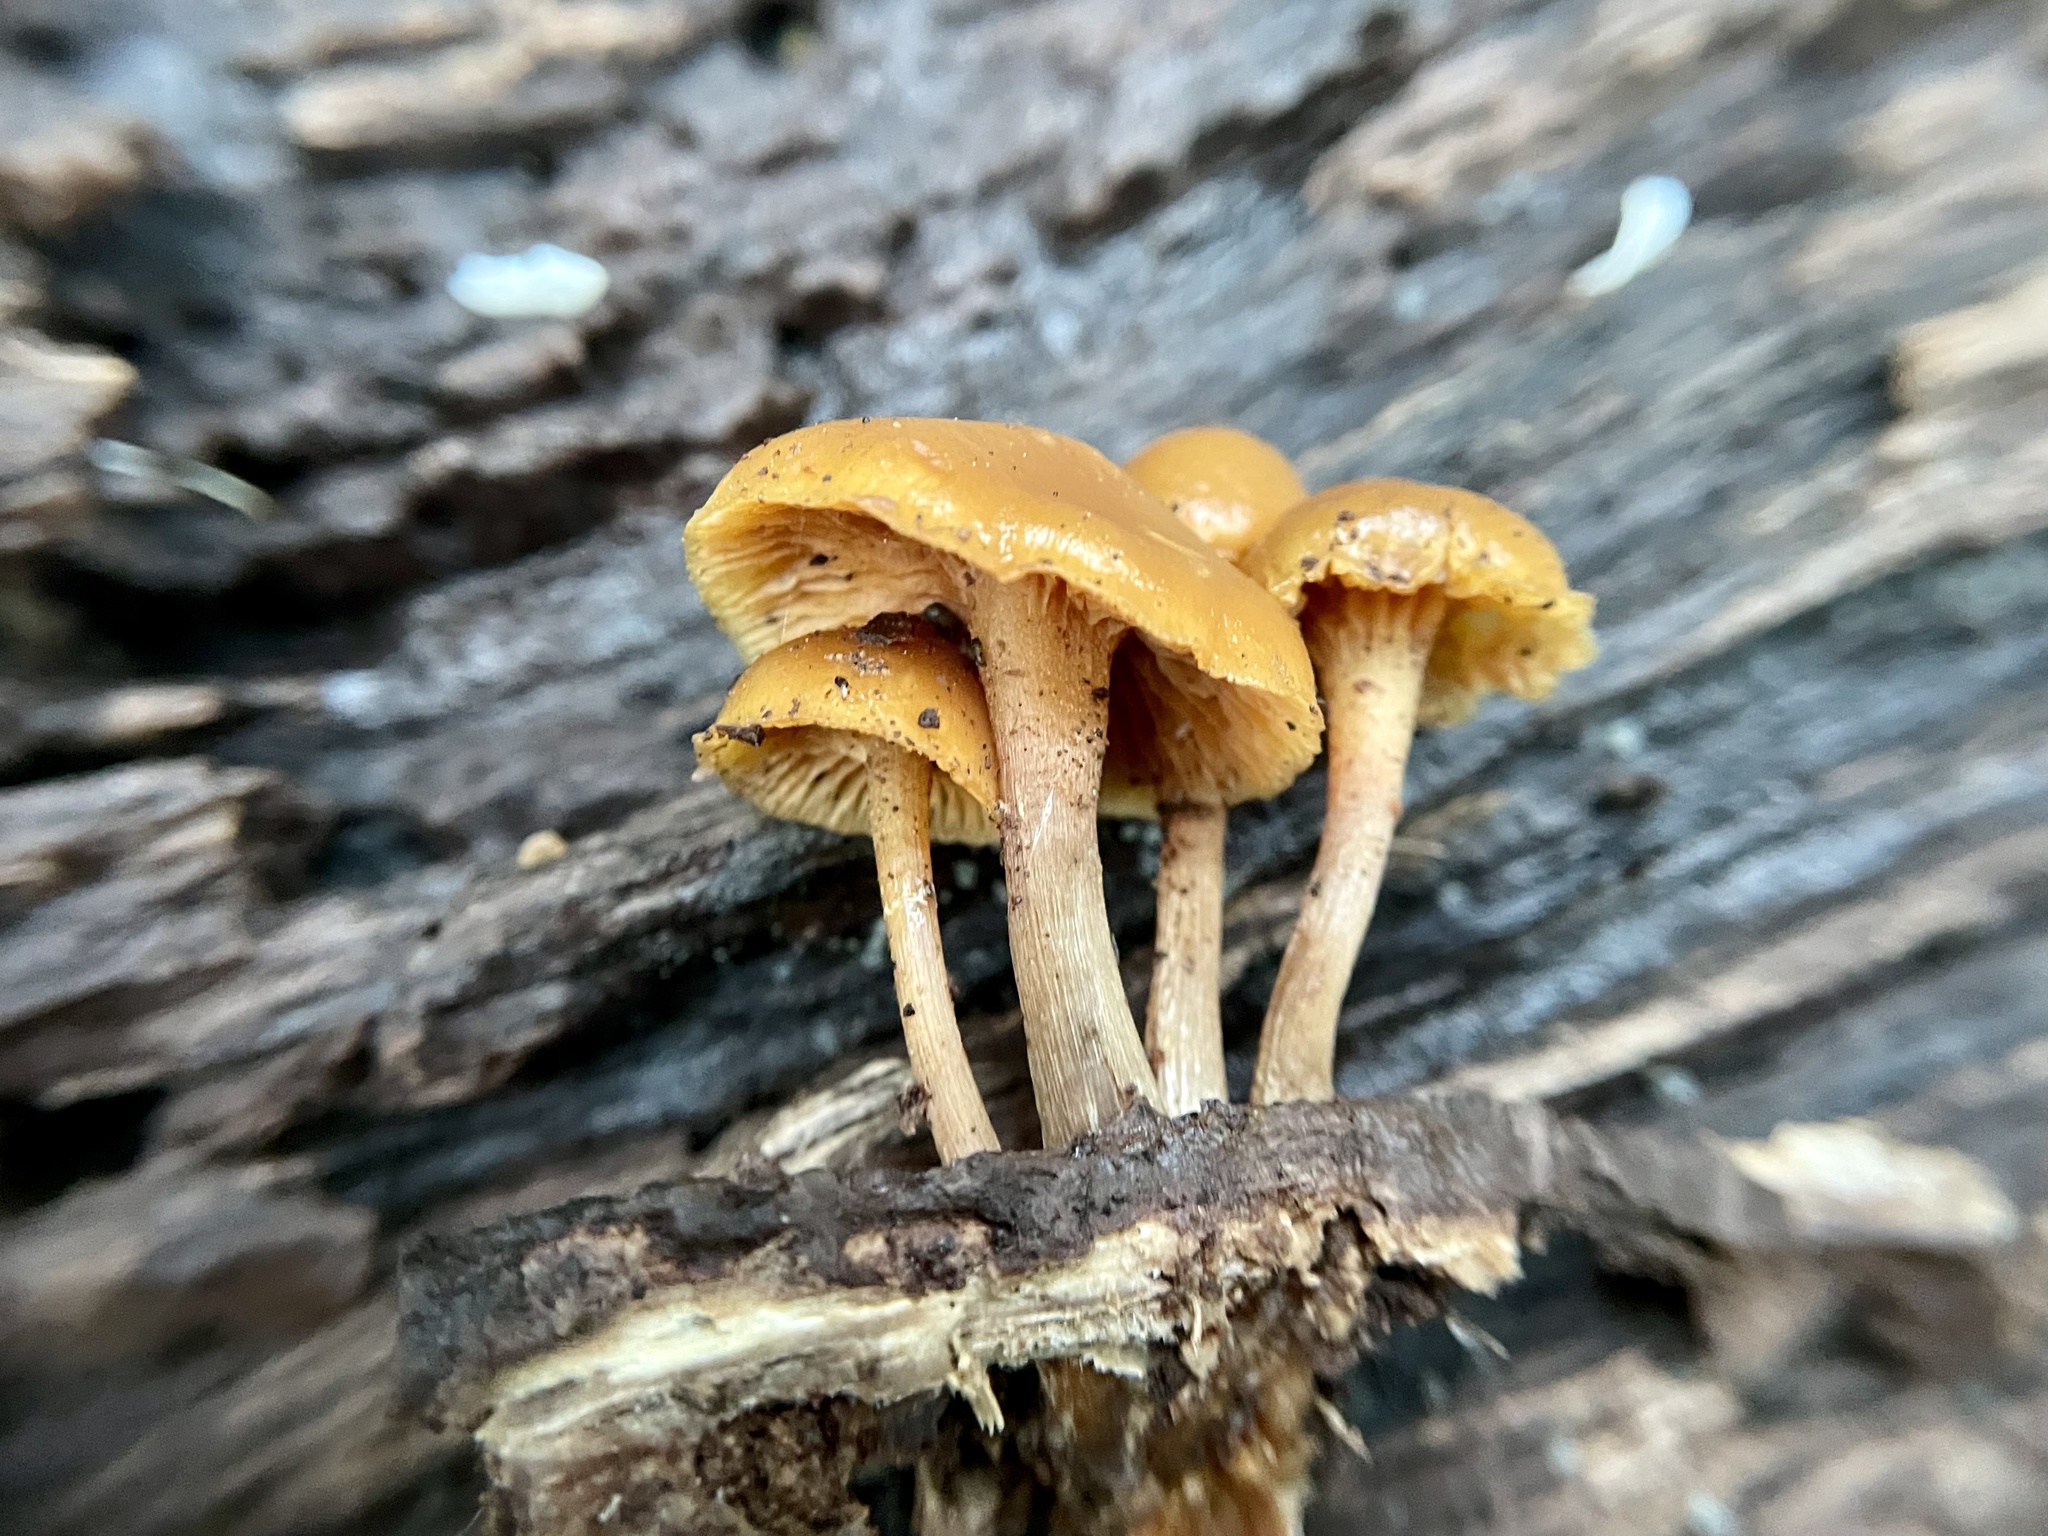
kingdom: Fungi
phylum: Basidiomycota
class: Agaricomycetes
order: Agaricales
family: Hymenogastraceae
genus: Galerina
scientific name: Galerina marginata
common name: Funeral bell
